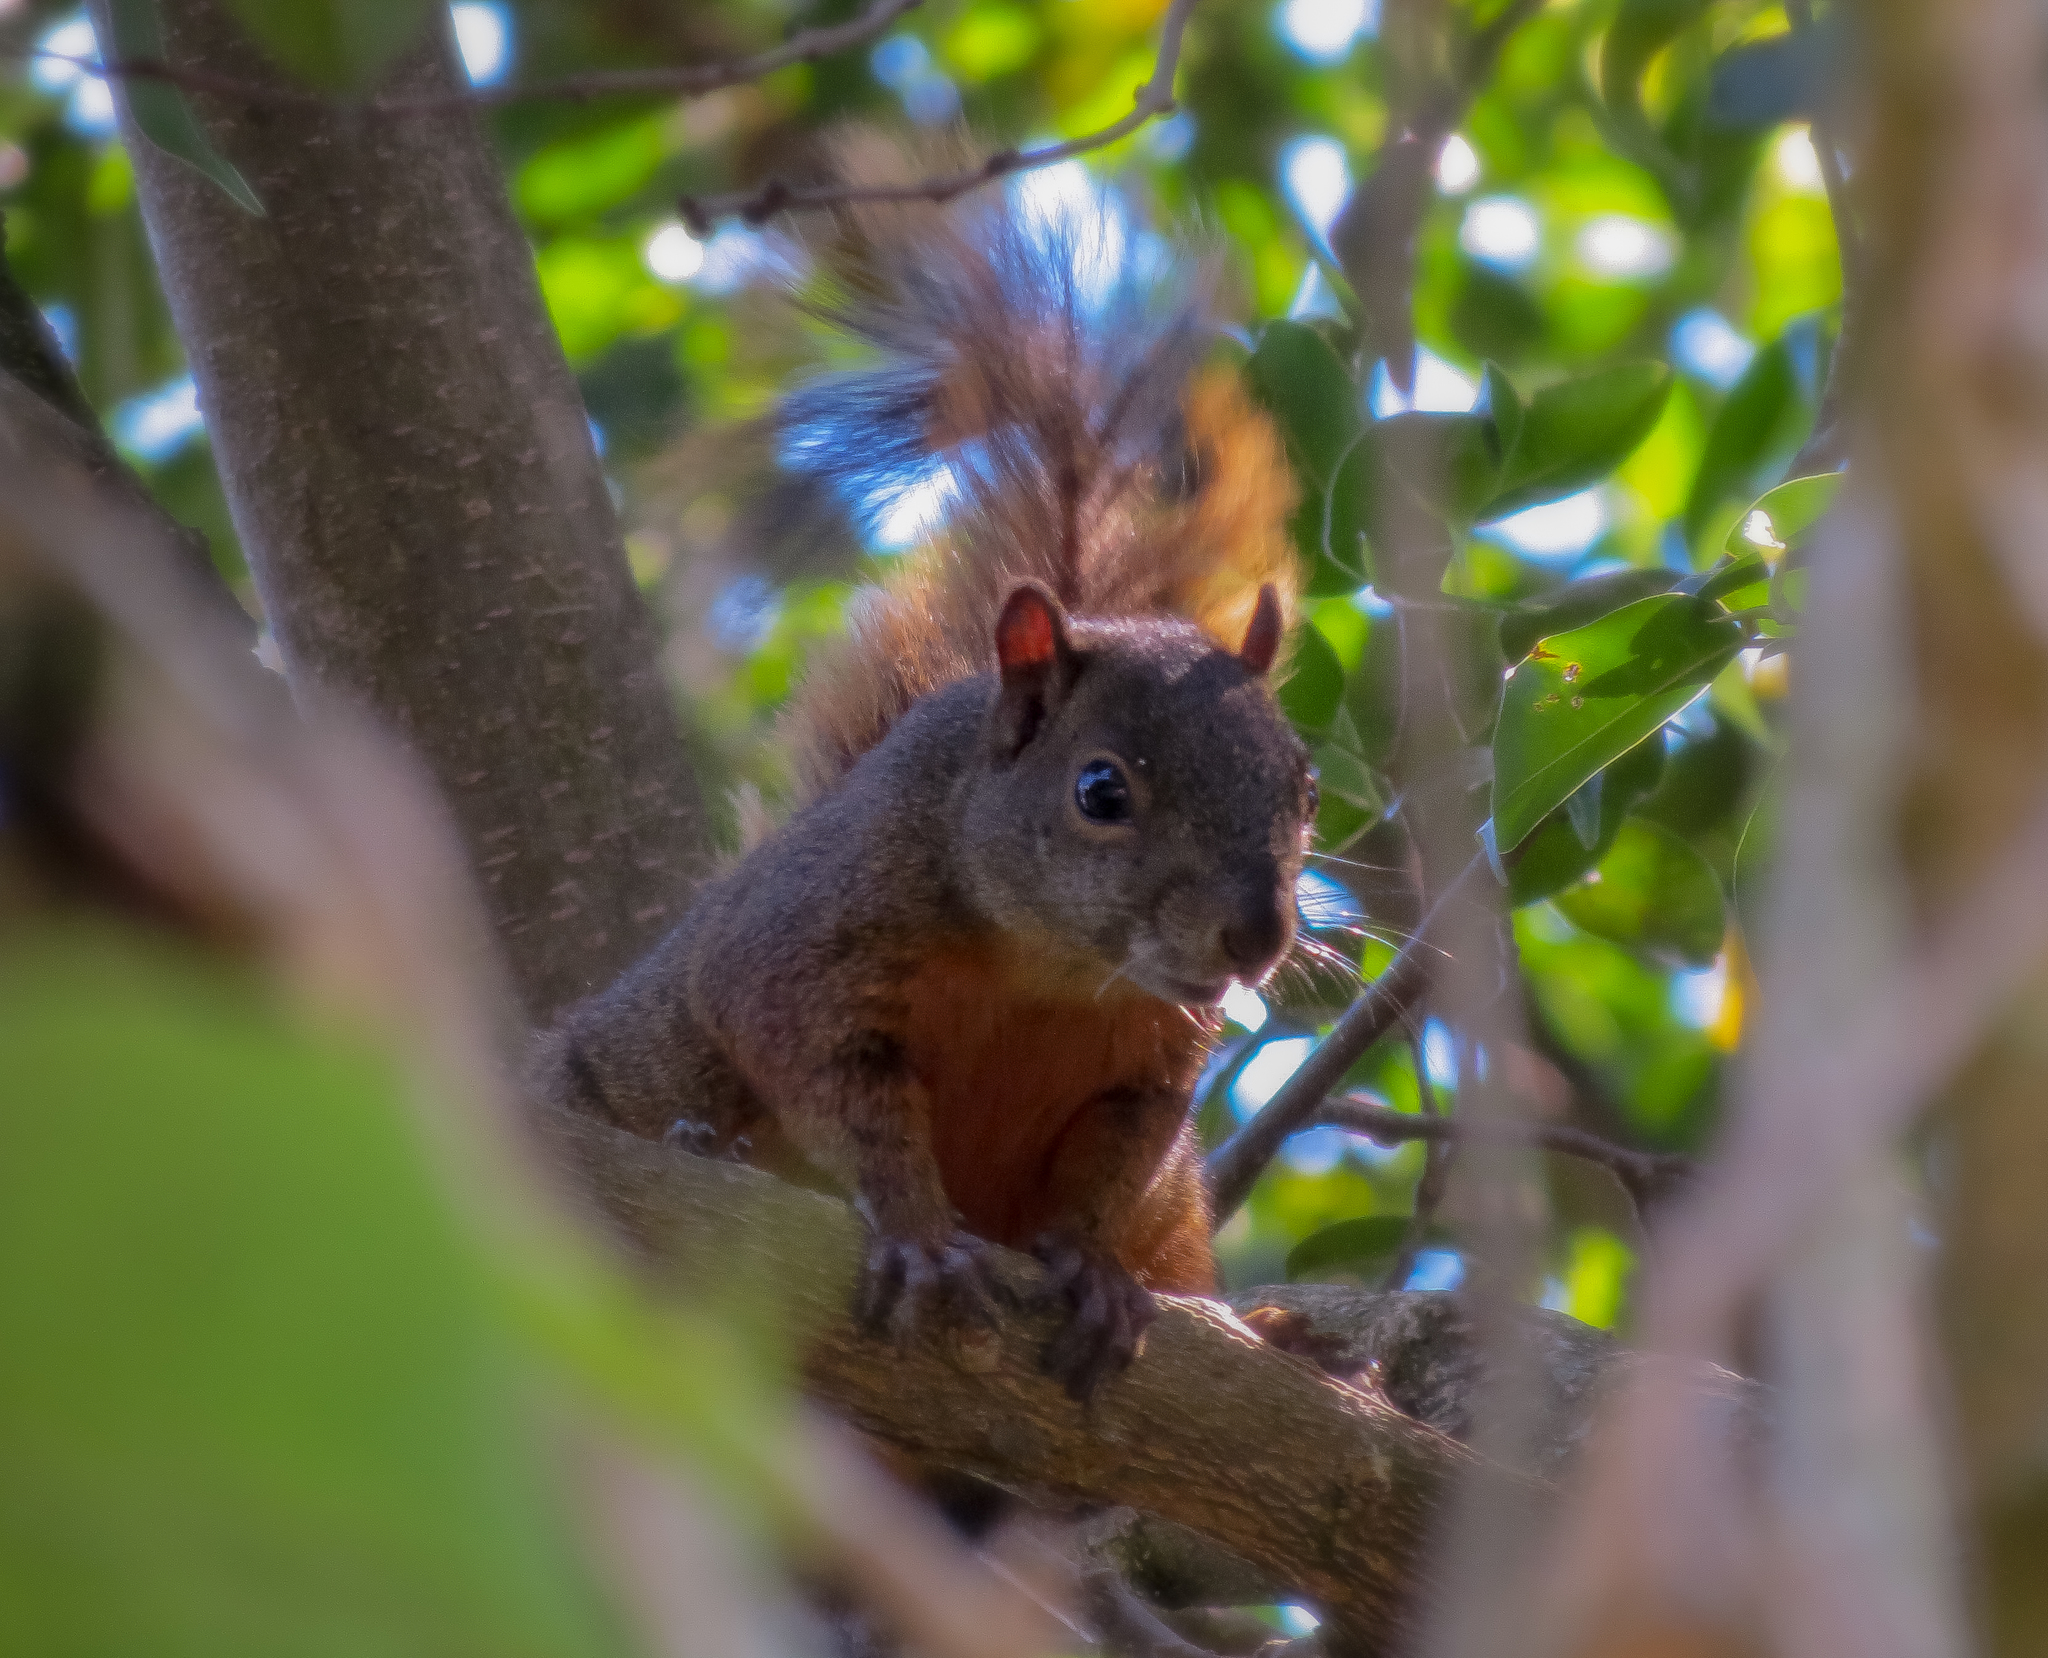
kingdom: Animalia
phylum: Chordata
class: Mammalia
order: Rodentia
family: Sciuridae
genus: Sciurus
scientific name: Sciurus granatensis
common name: Red-tailed squirrel
